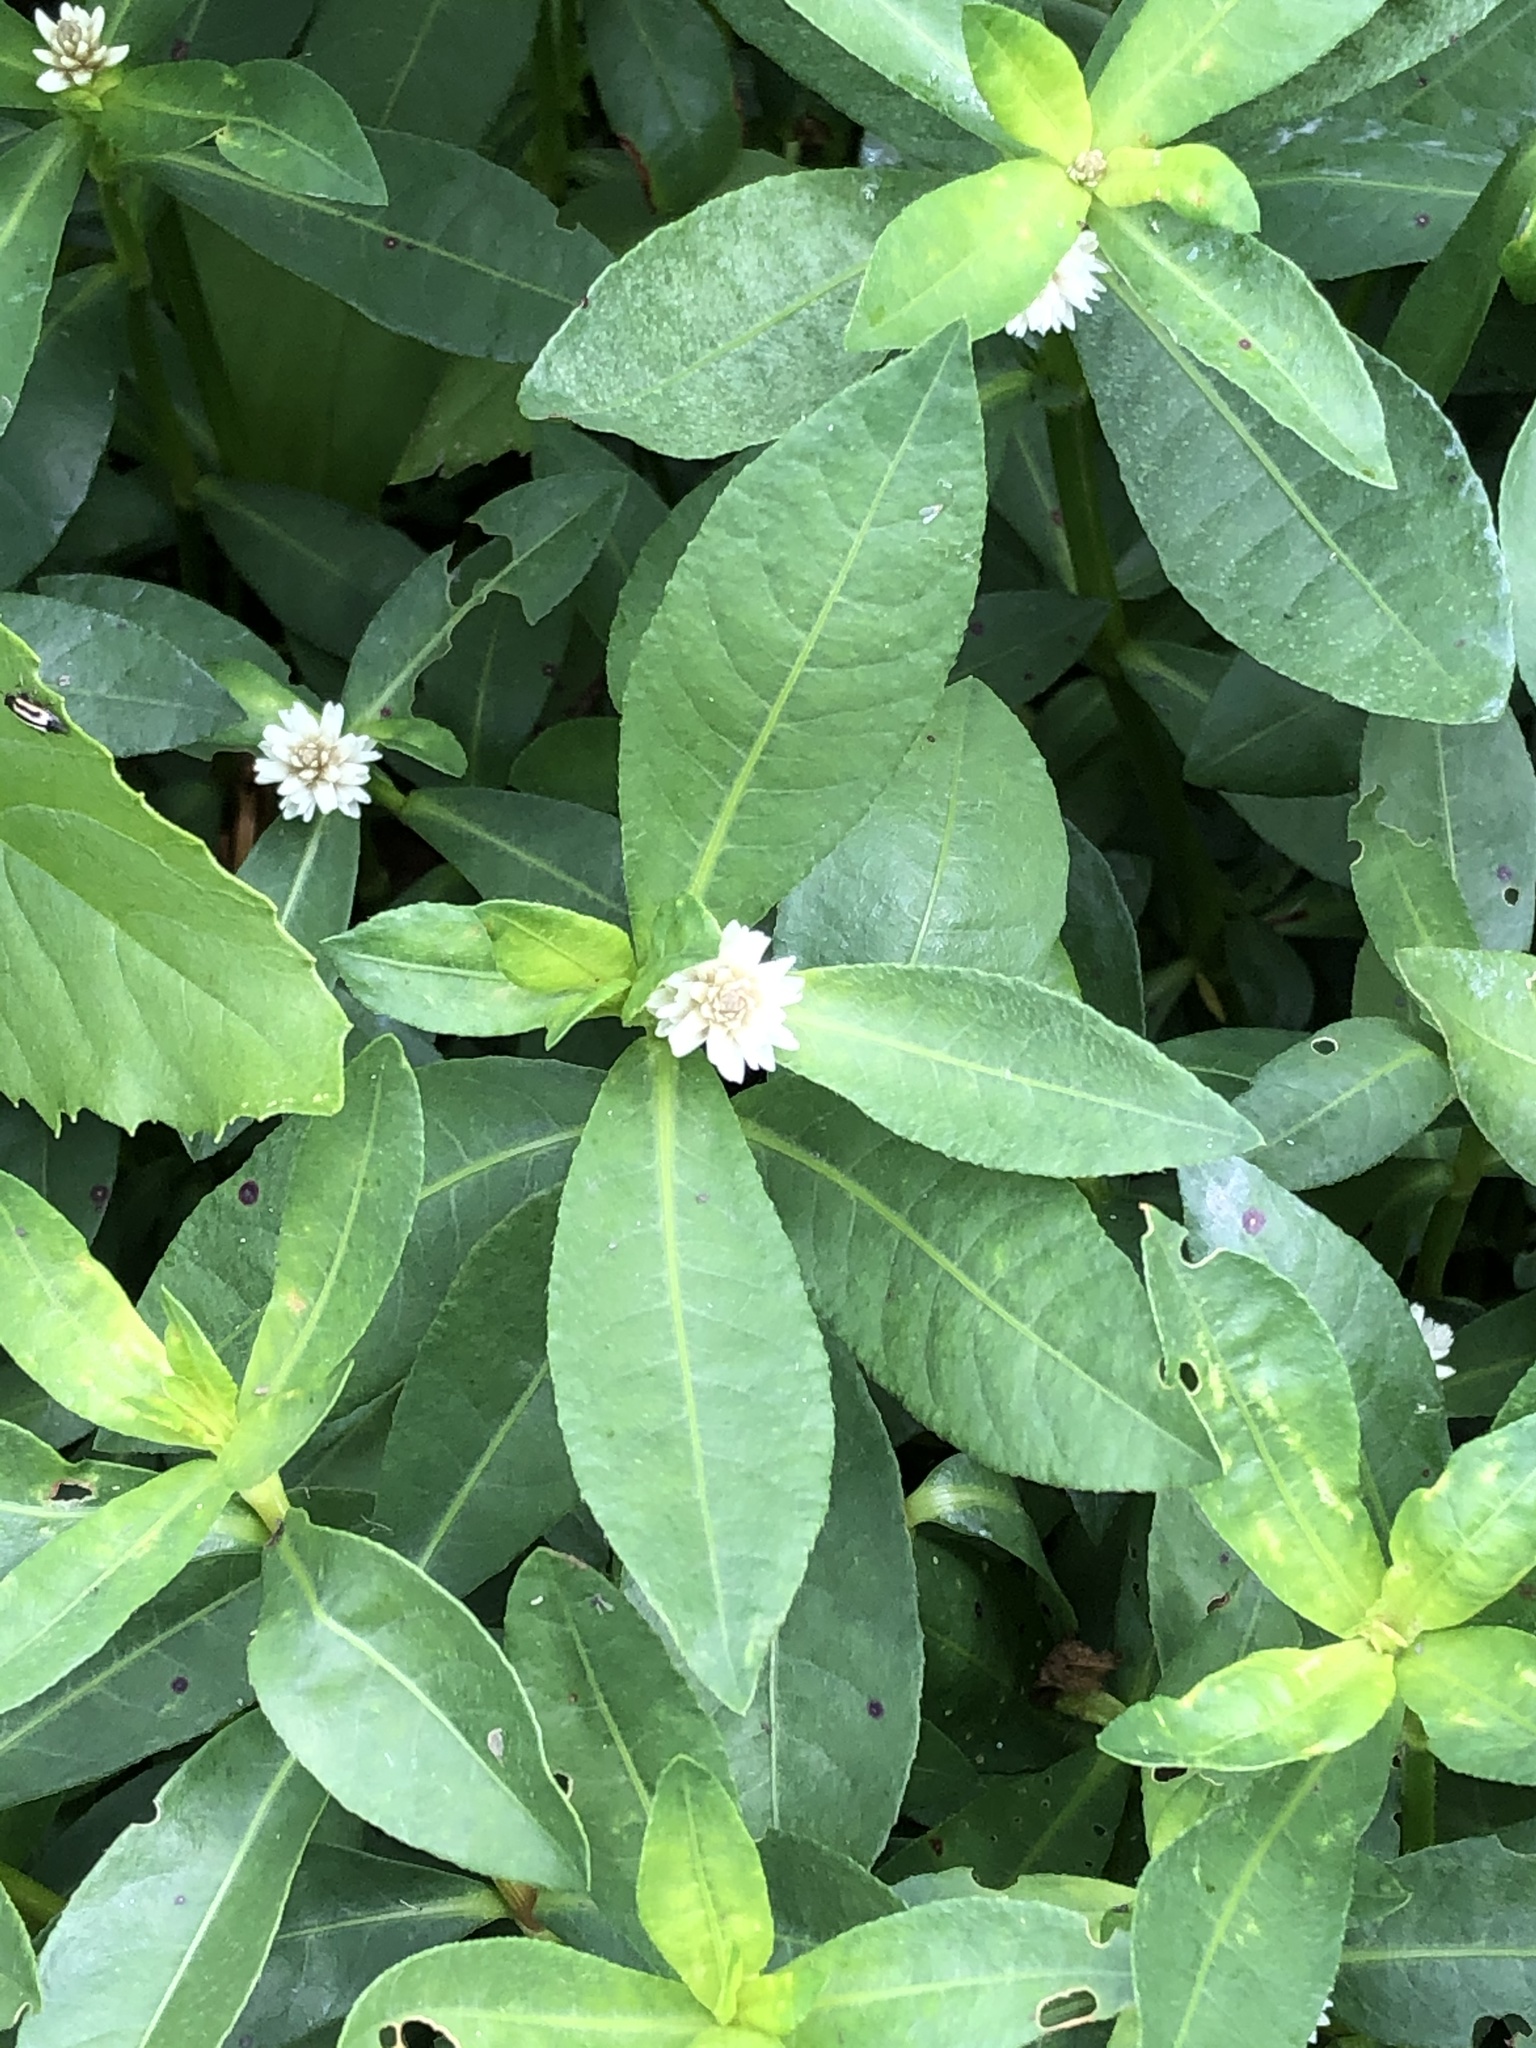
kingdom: Plantae
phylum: Tracheophyta
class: Magnoliopsida
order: Caryophyllales
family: Amaranthaceae
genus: Alternanthera
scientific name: Alternanthera philoxeroides
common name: Alligatorweed
